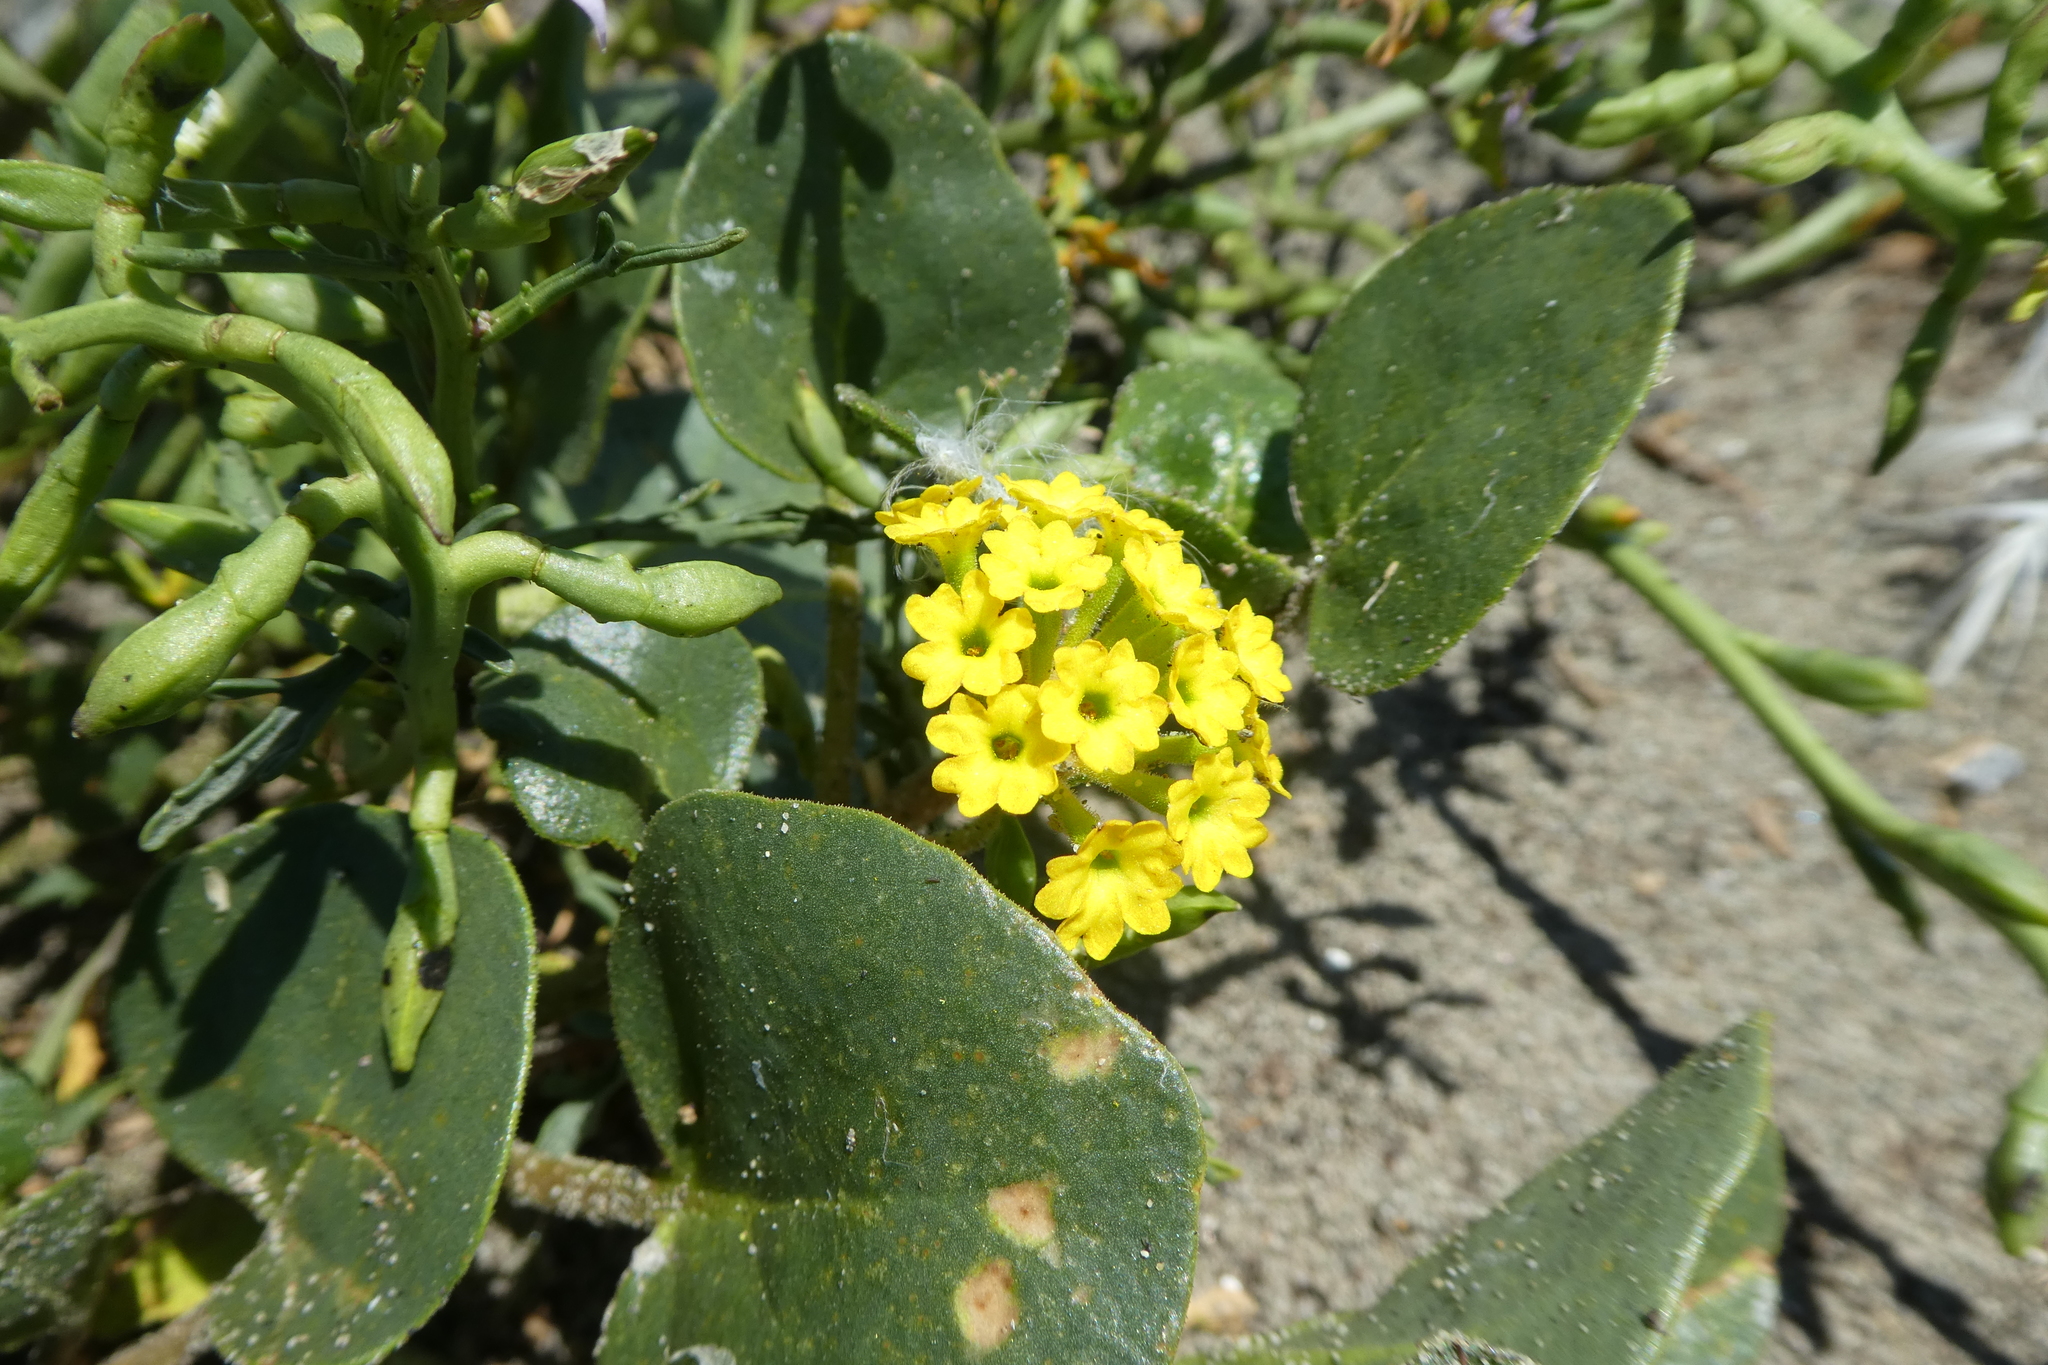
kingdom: Plantae
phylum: Tracheophyta
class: Magnoliopsida
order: Caryophyllales
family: Nyctaginaceae
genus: Abronia
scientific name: Abronia latifolia
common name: Yellow sand-verbena
